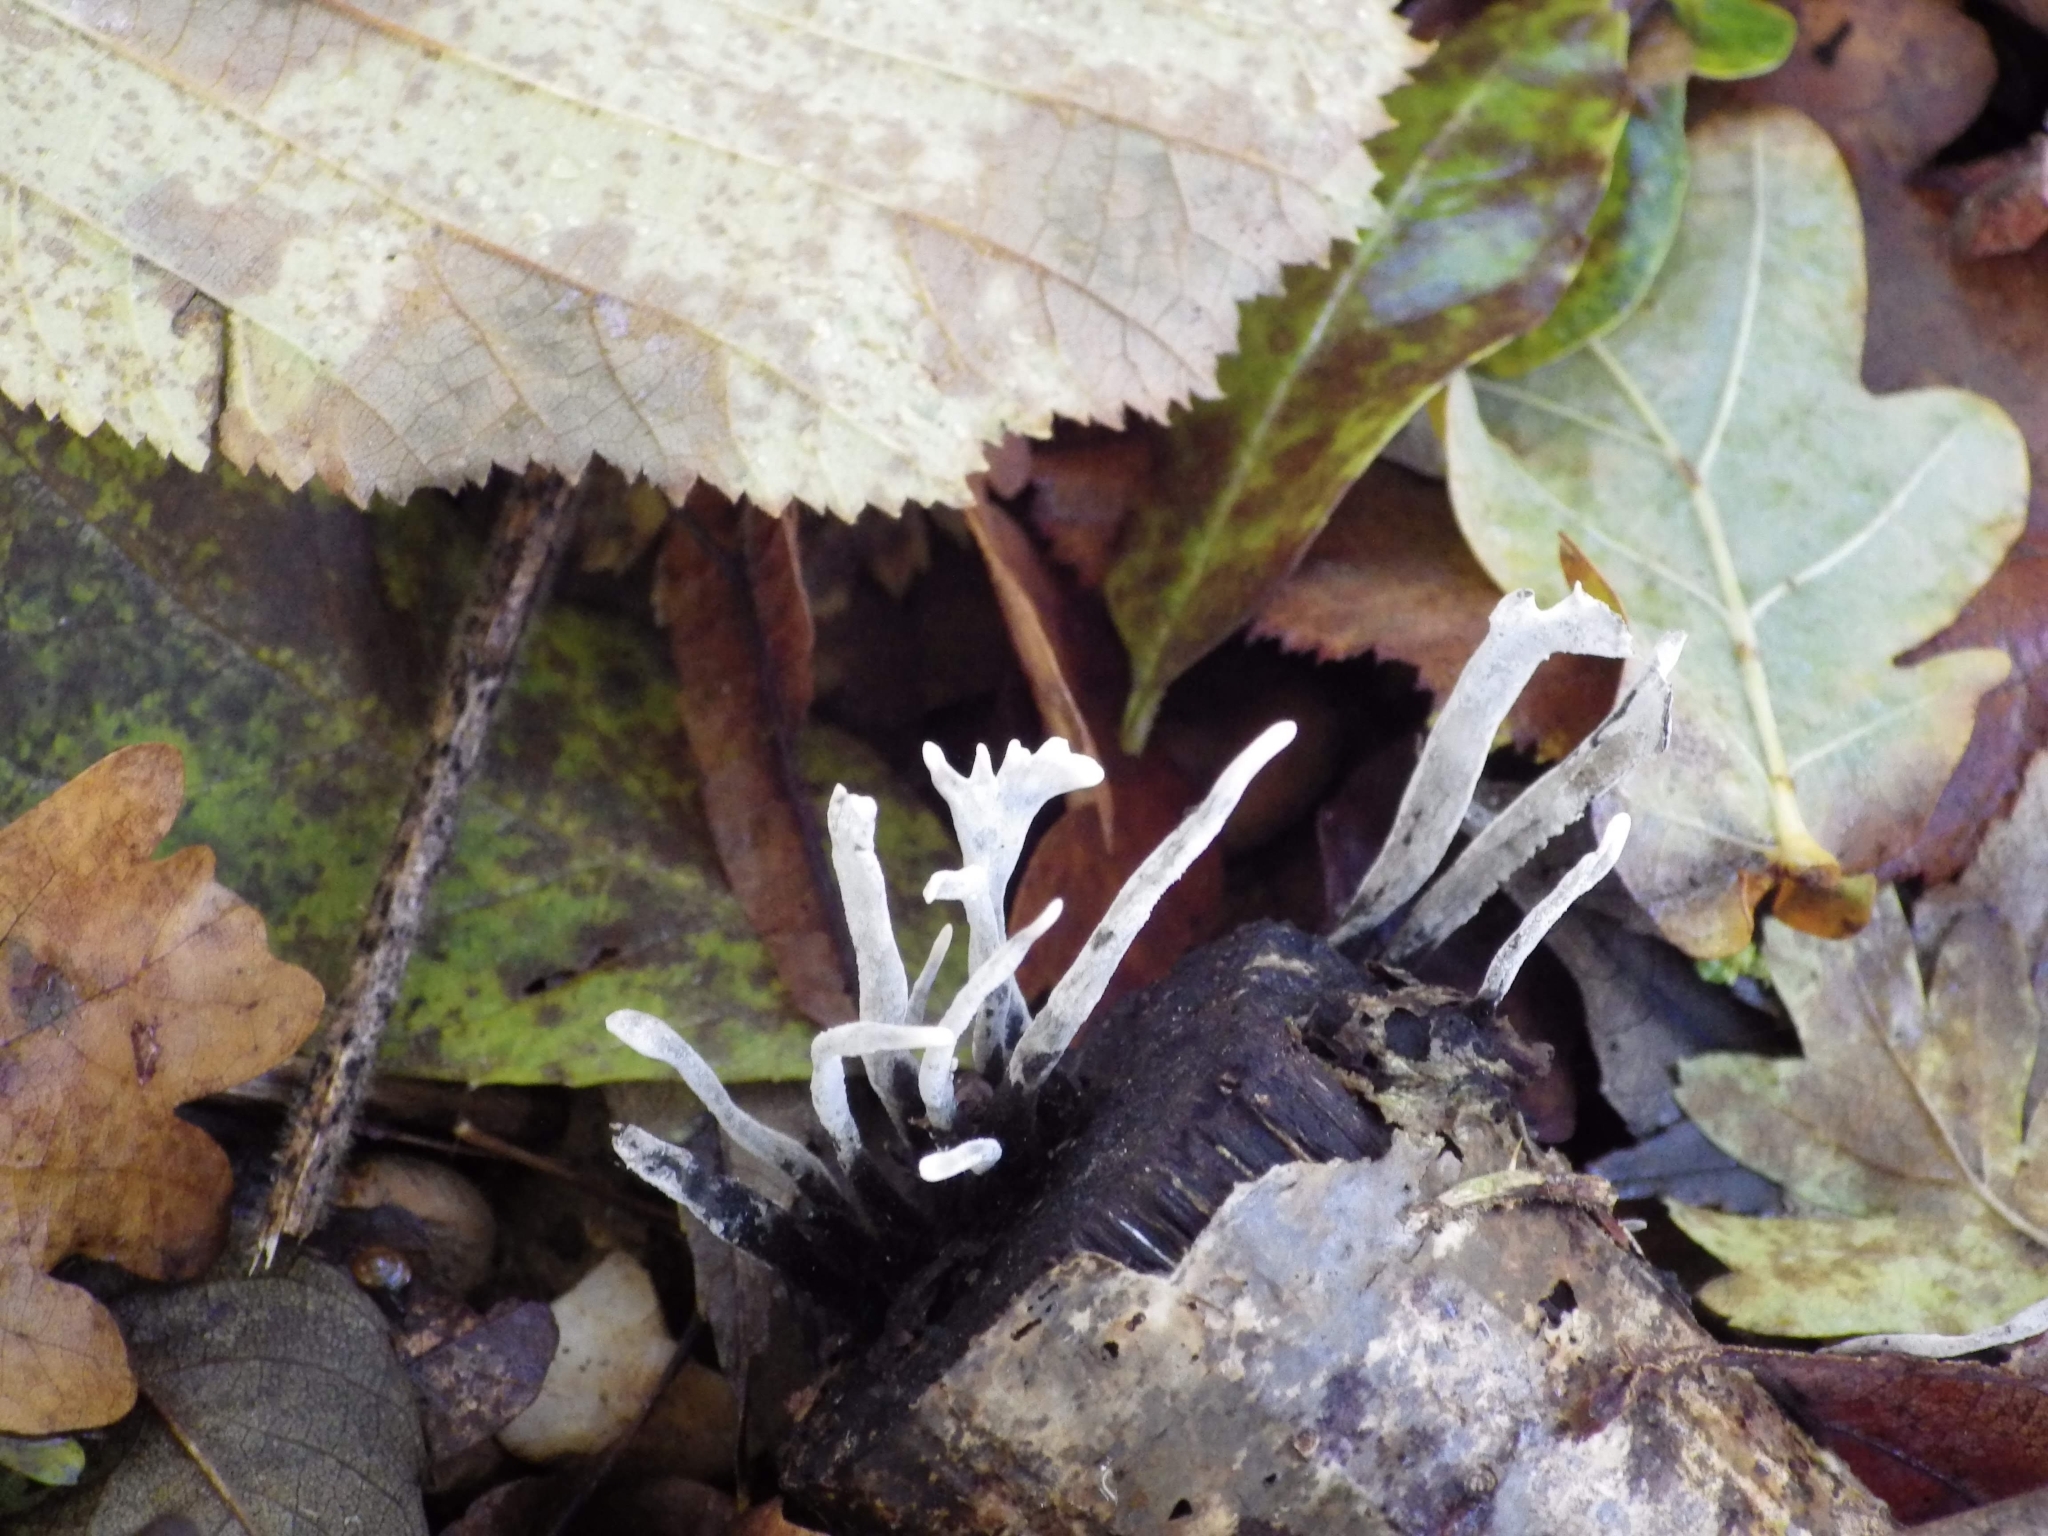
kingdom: Fungi
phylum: Ascomycota
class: Sordariomycetes
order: Xylariales
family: Xylariaceae
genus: Xylaria
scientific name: Xylaria hypoxylon
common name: Candle-snuff fungus
